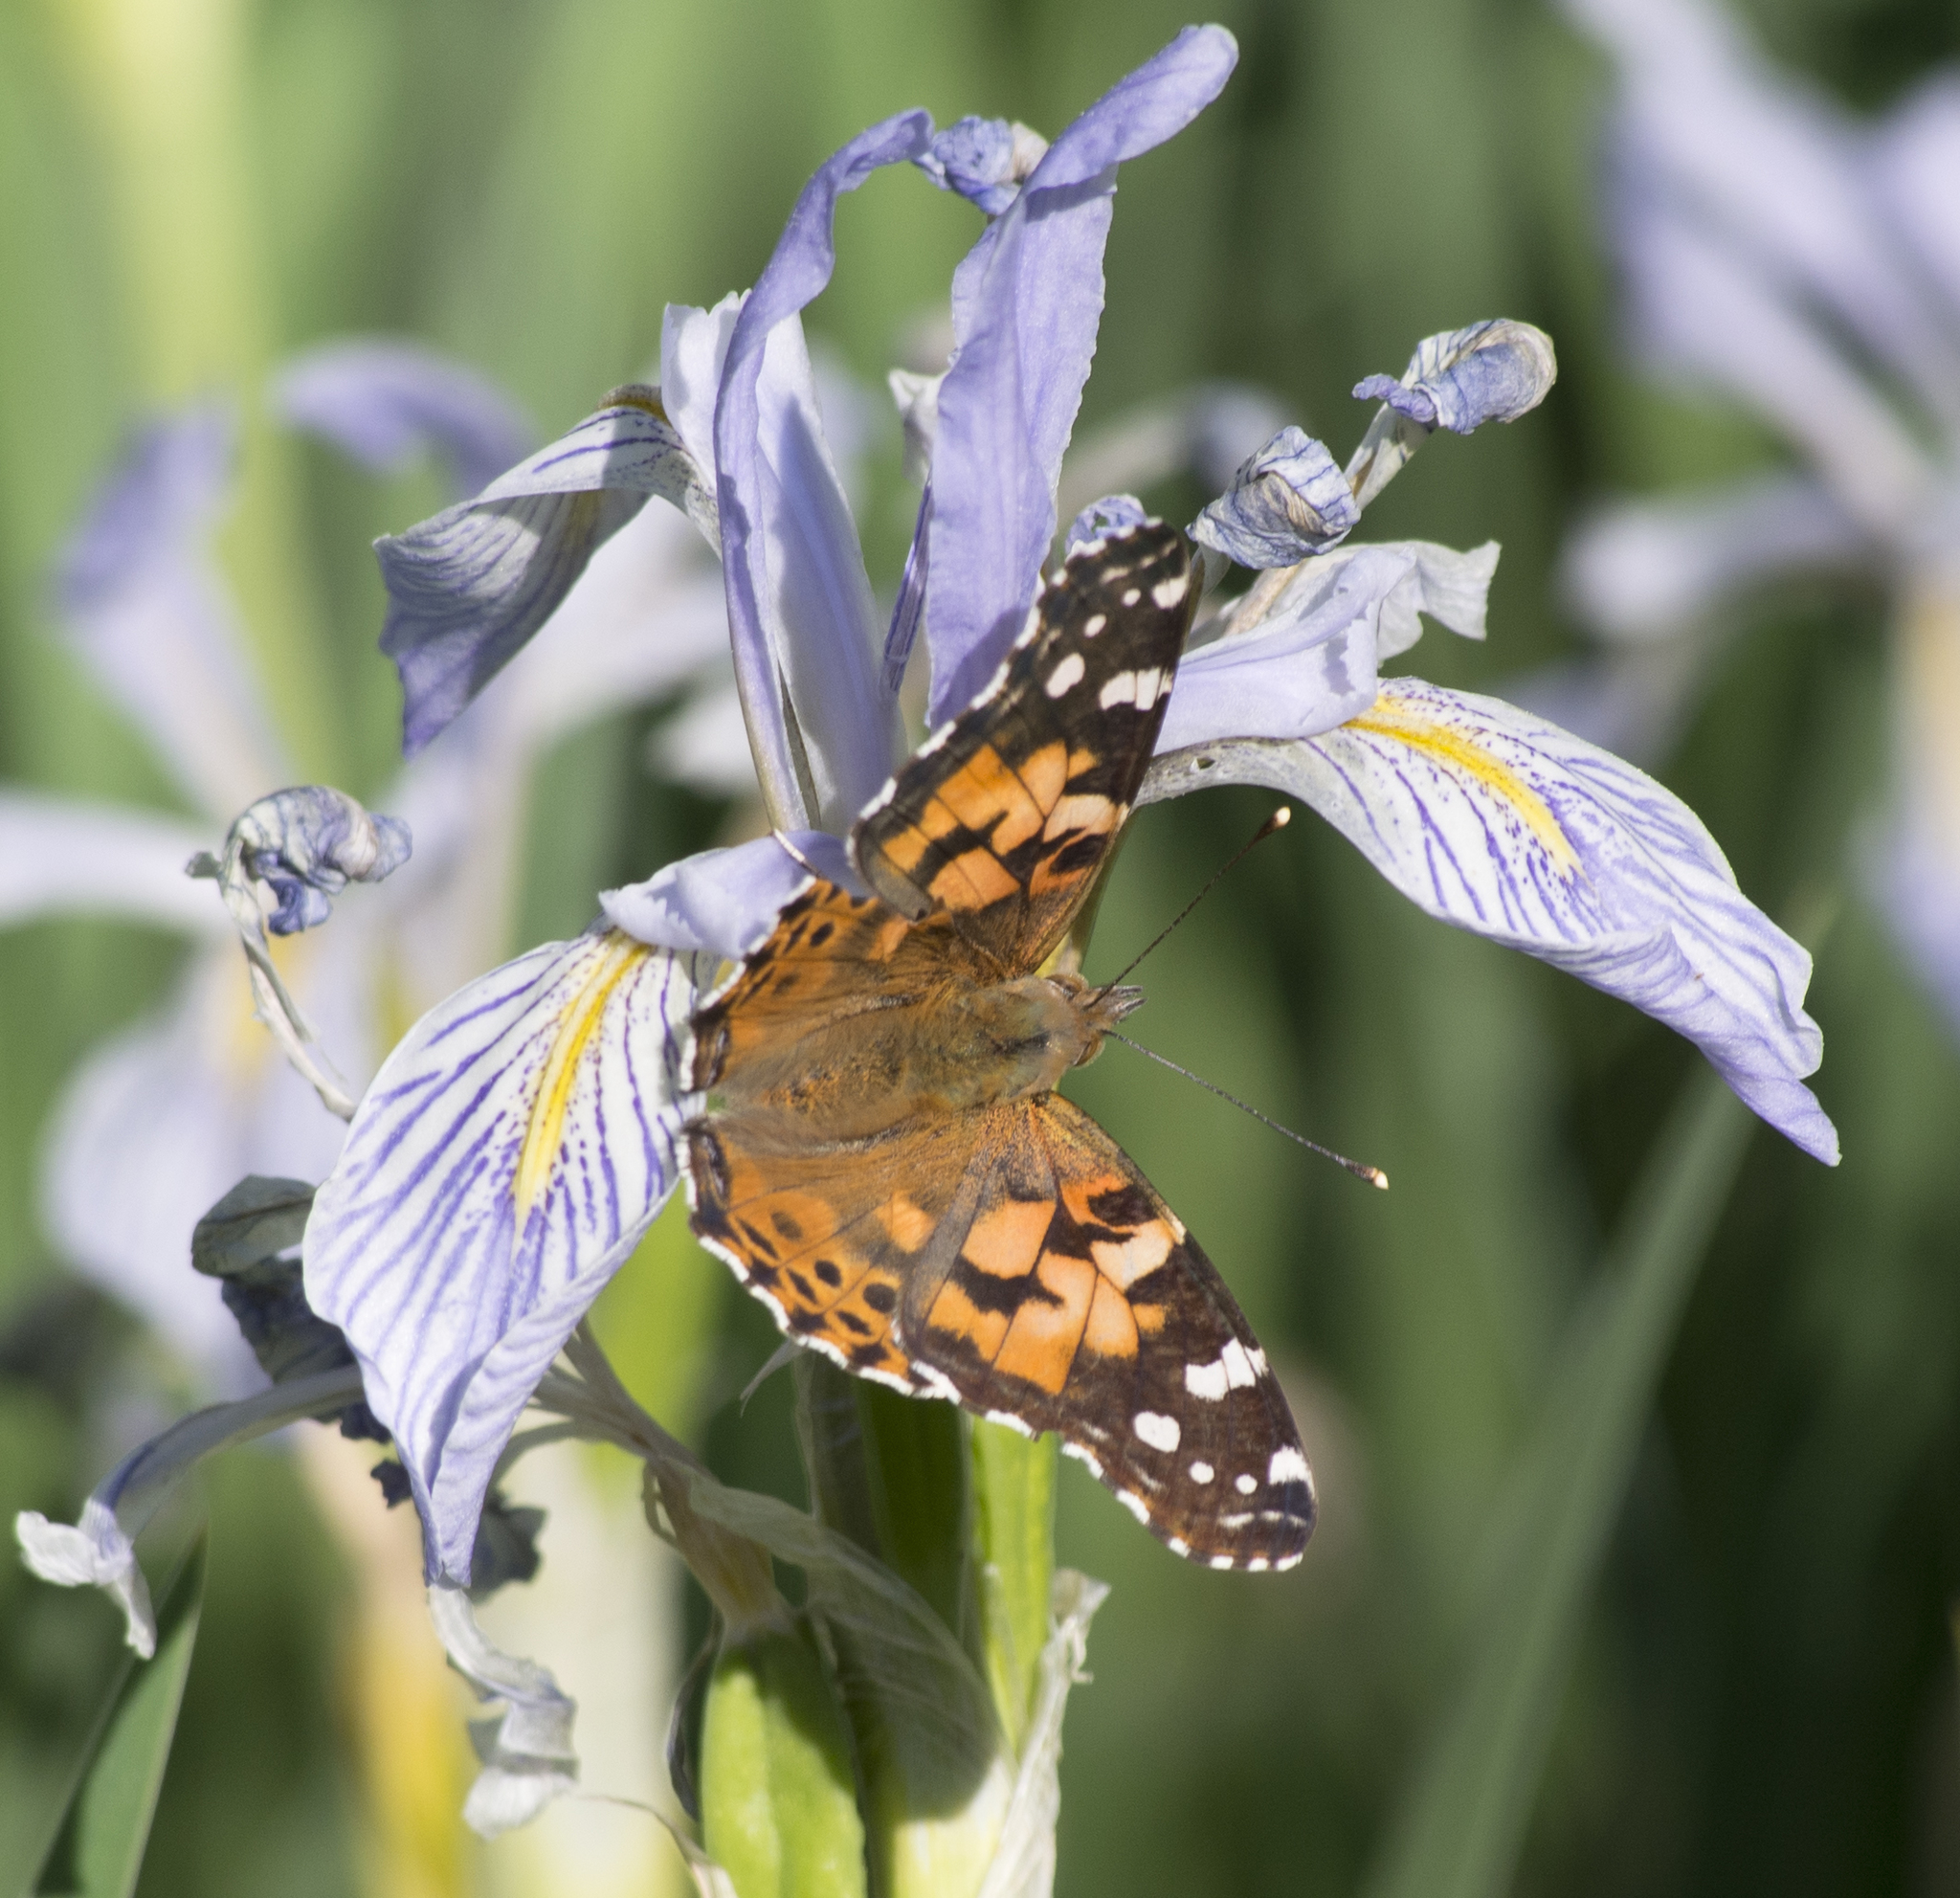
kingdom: Animalia
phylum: Arthropoda
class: Insecta
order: Lepidoptera
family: Nymphalidae
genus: Vanessa
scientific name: Vanessa cardui
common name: Painted lady
